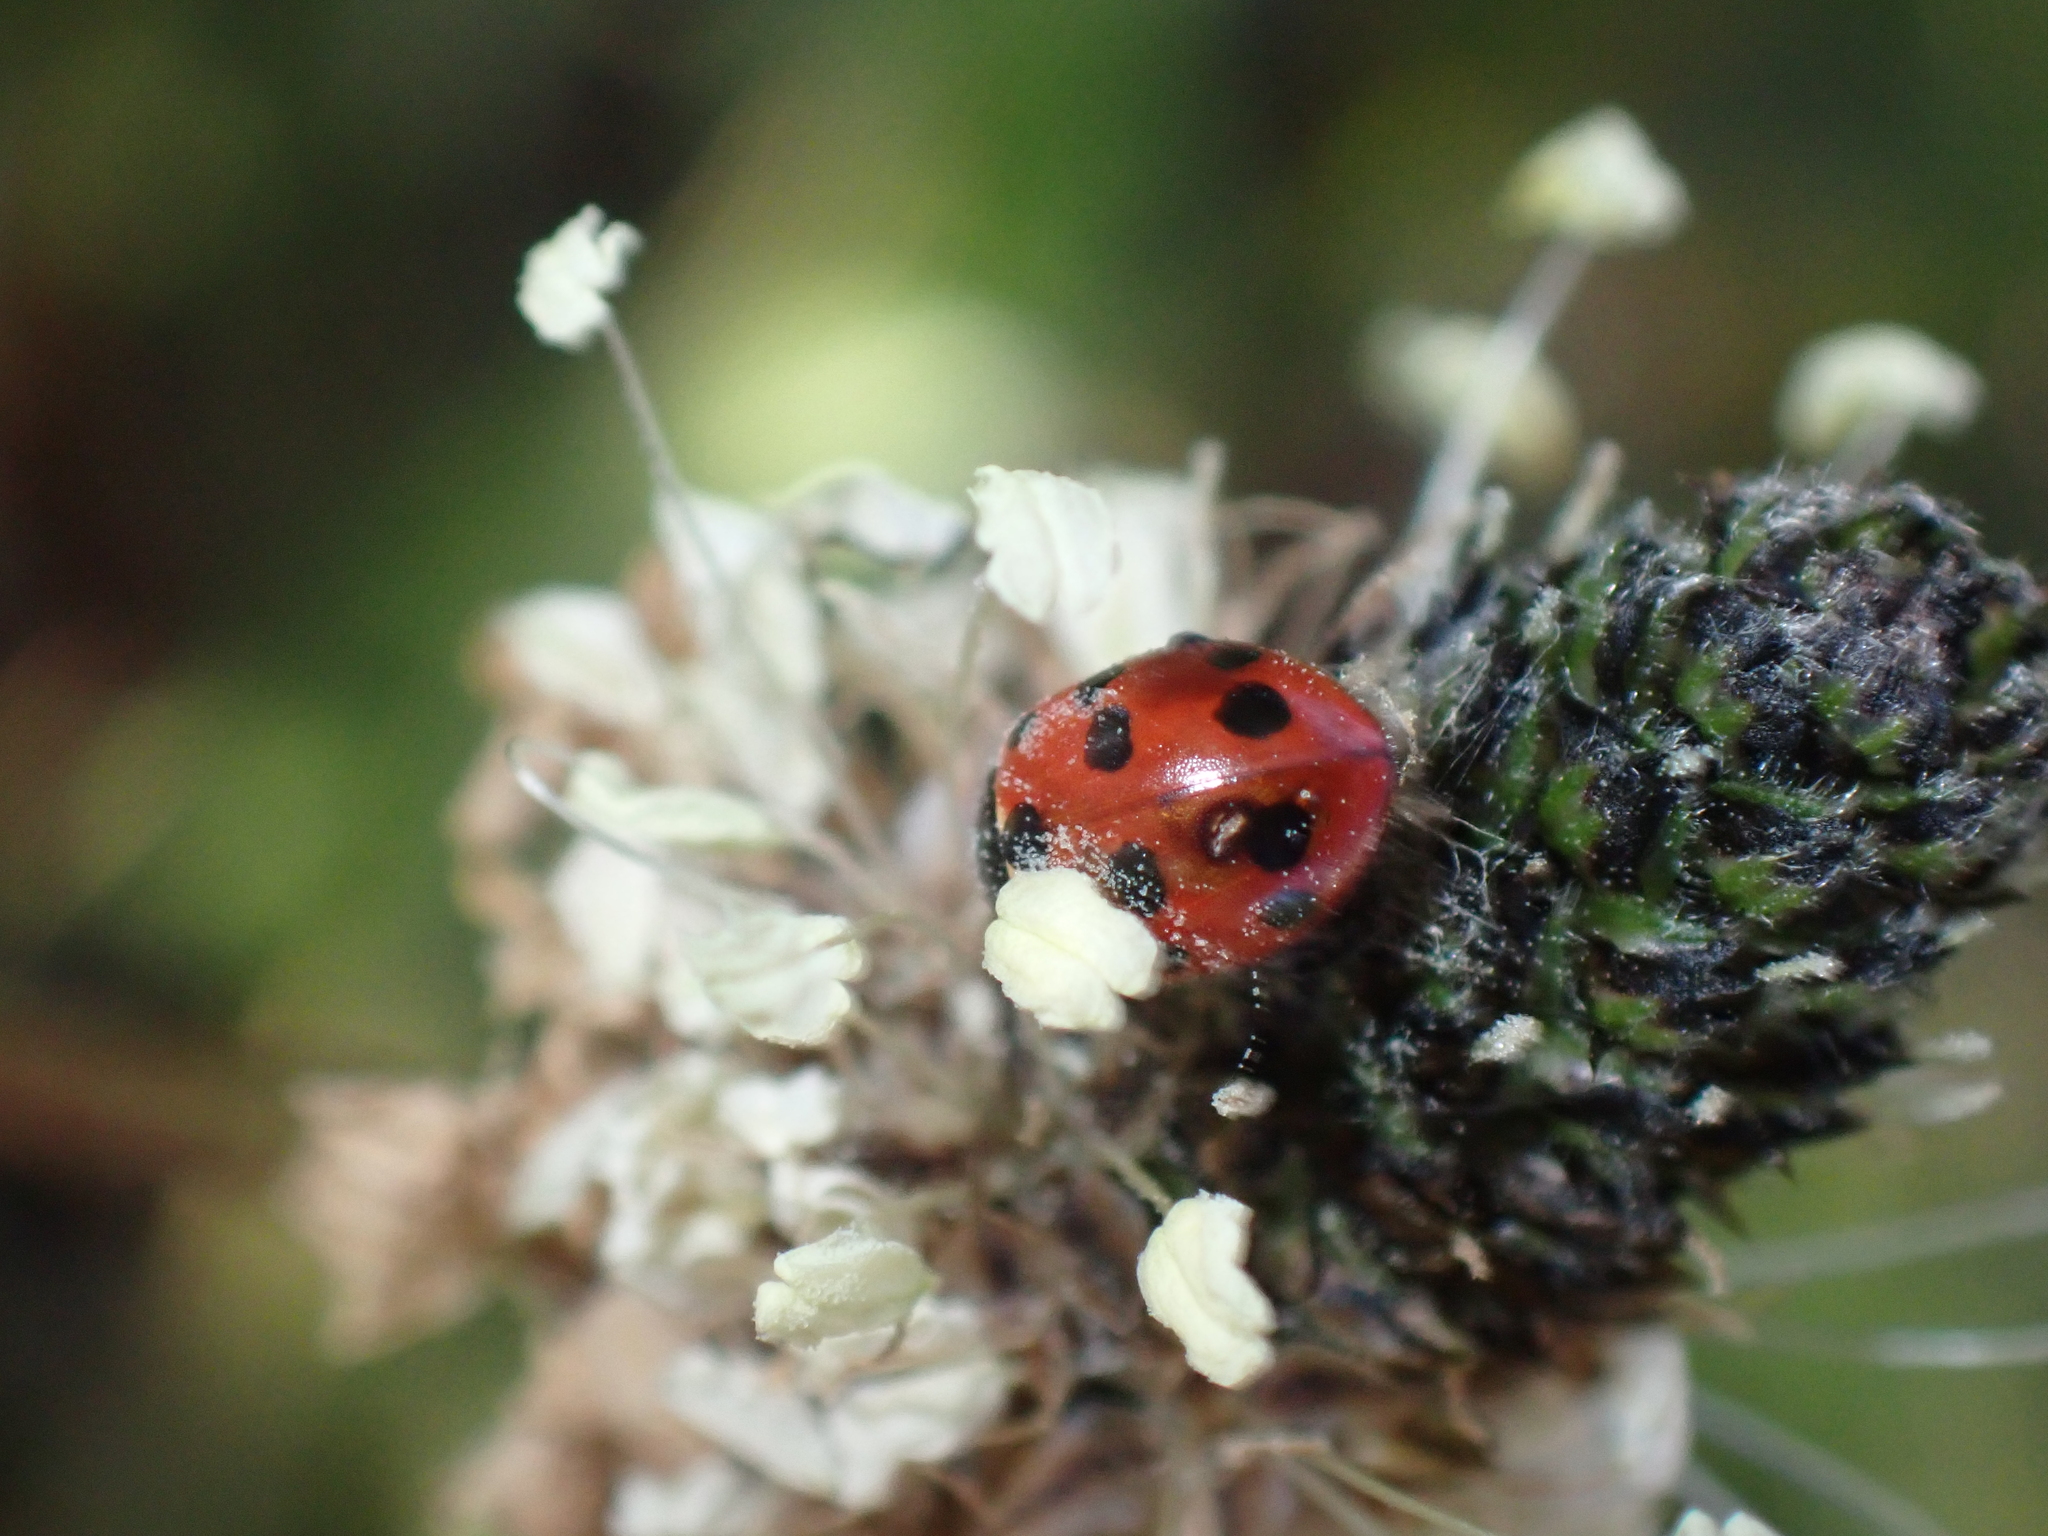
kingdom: Animalia
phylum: Arthropoda
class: Insecta
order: Coleoptera
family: Coccinellidae
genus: Coccinella
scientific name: Coccinella undecimpunctata
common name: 11-spot ladybird
